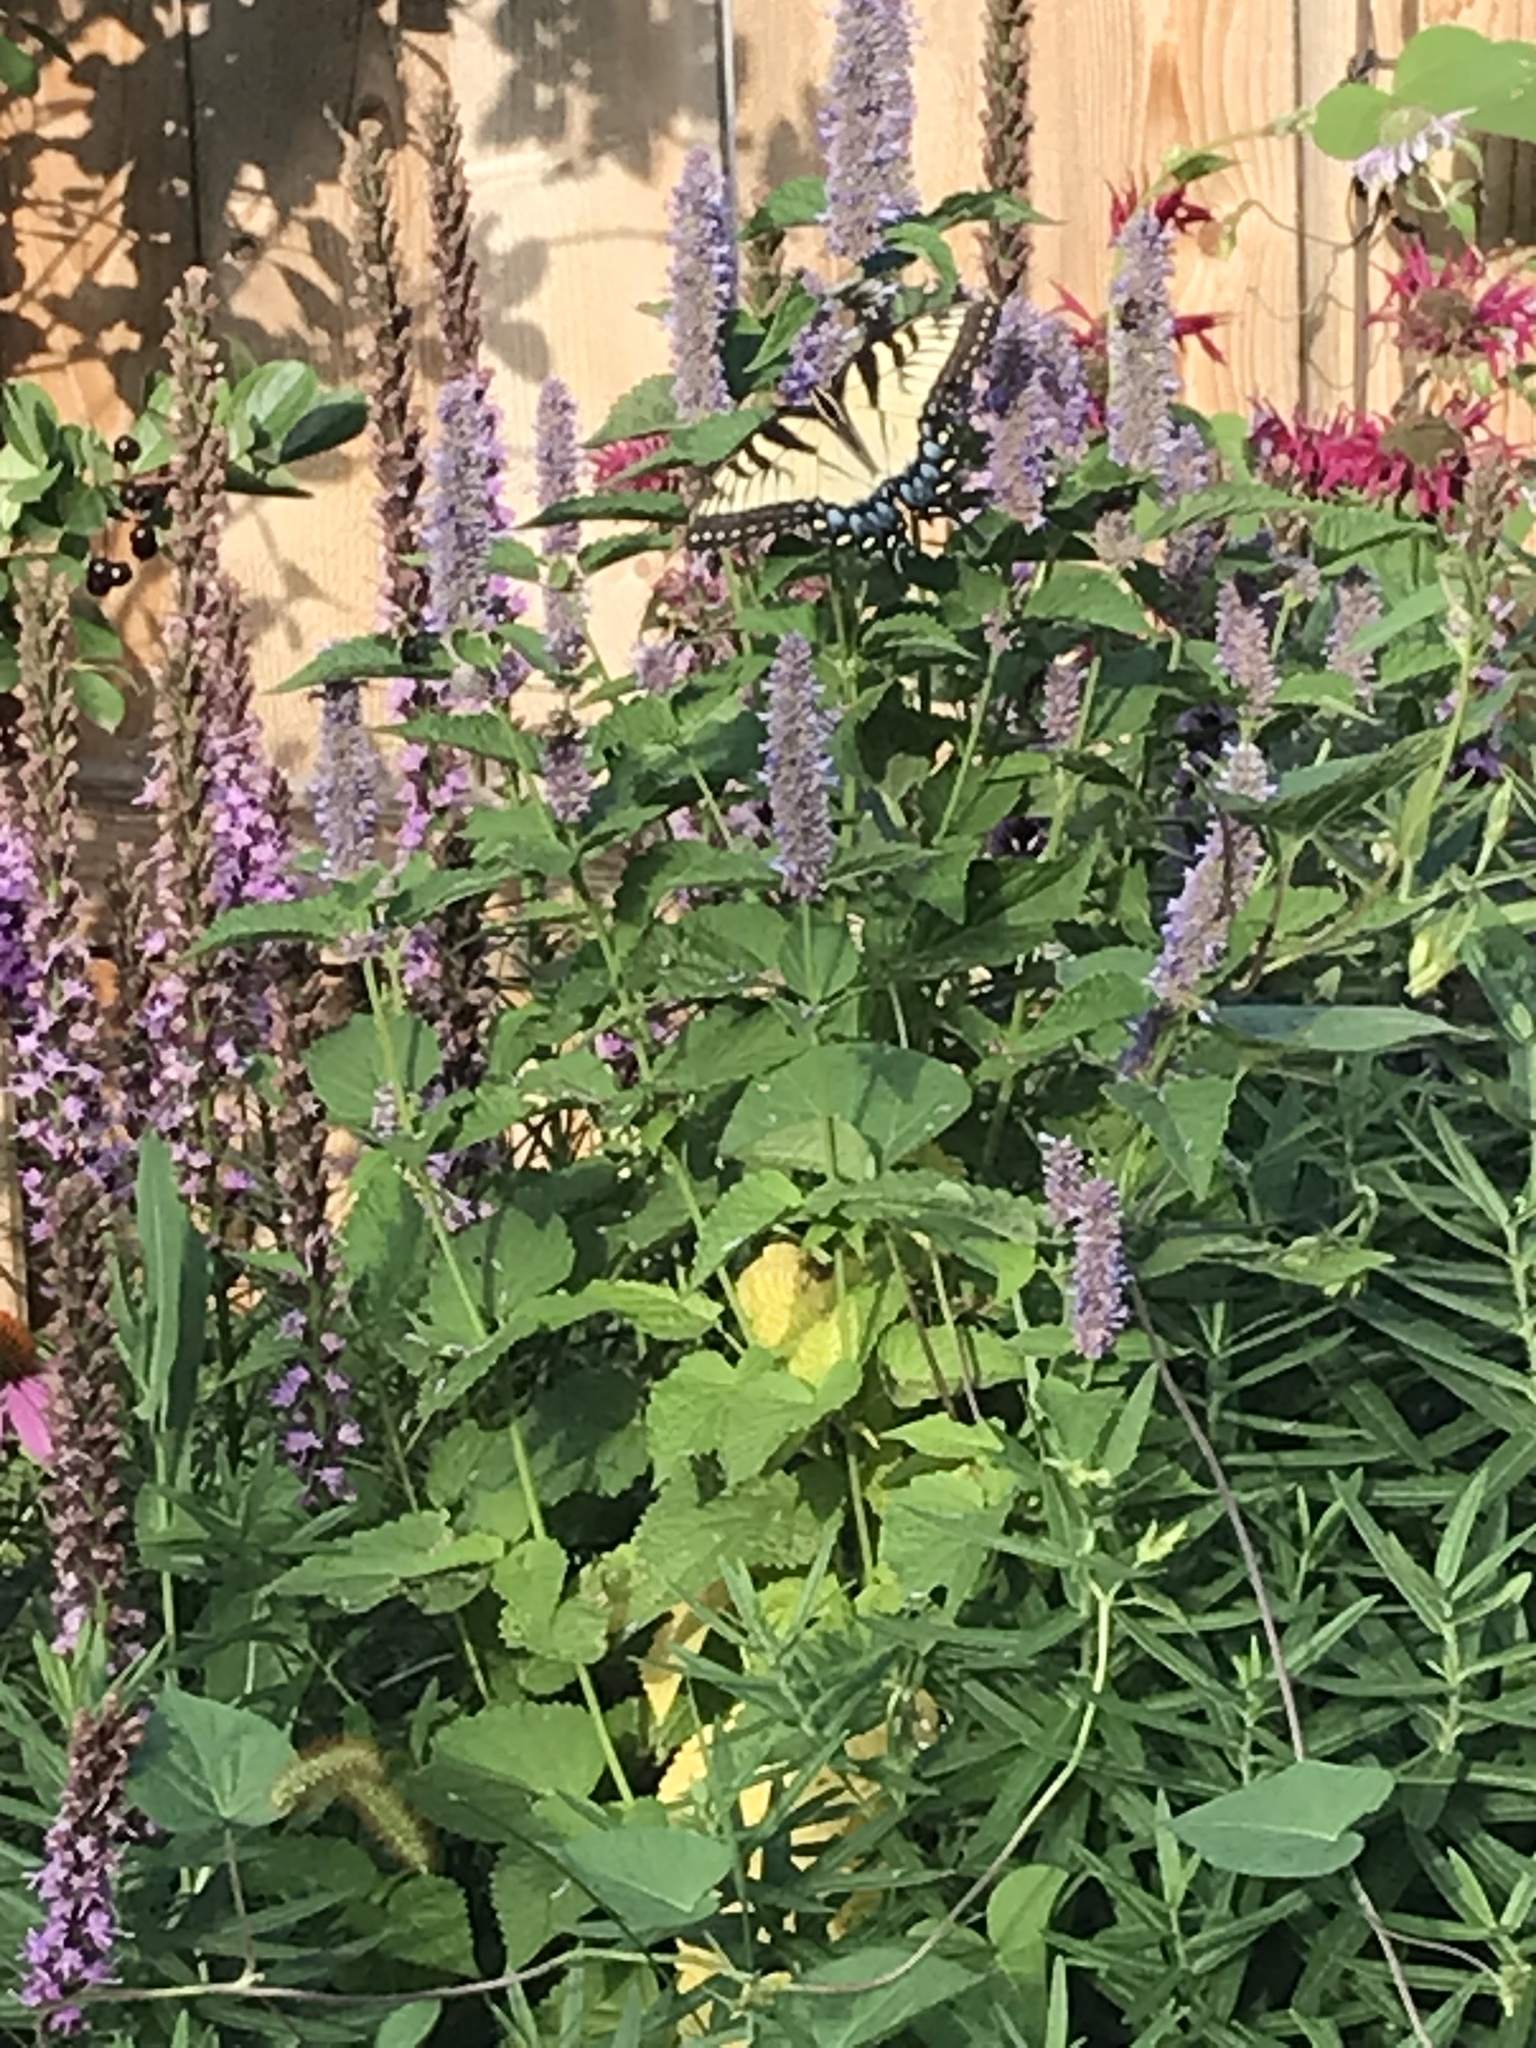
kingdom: Animalia
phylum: Arthropoda
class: Insecta
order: Lepidoptera
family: Papilionidae
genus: Papilio
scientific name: Papilio glaucus
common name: Tiger swallowtail
